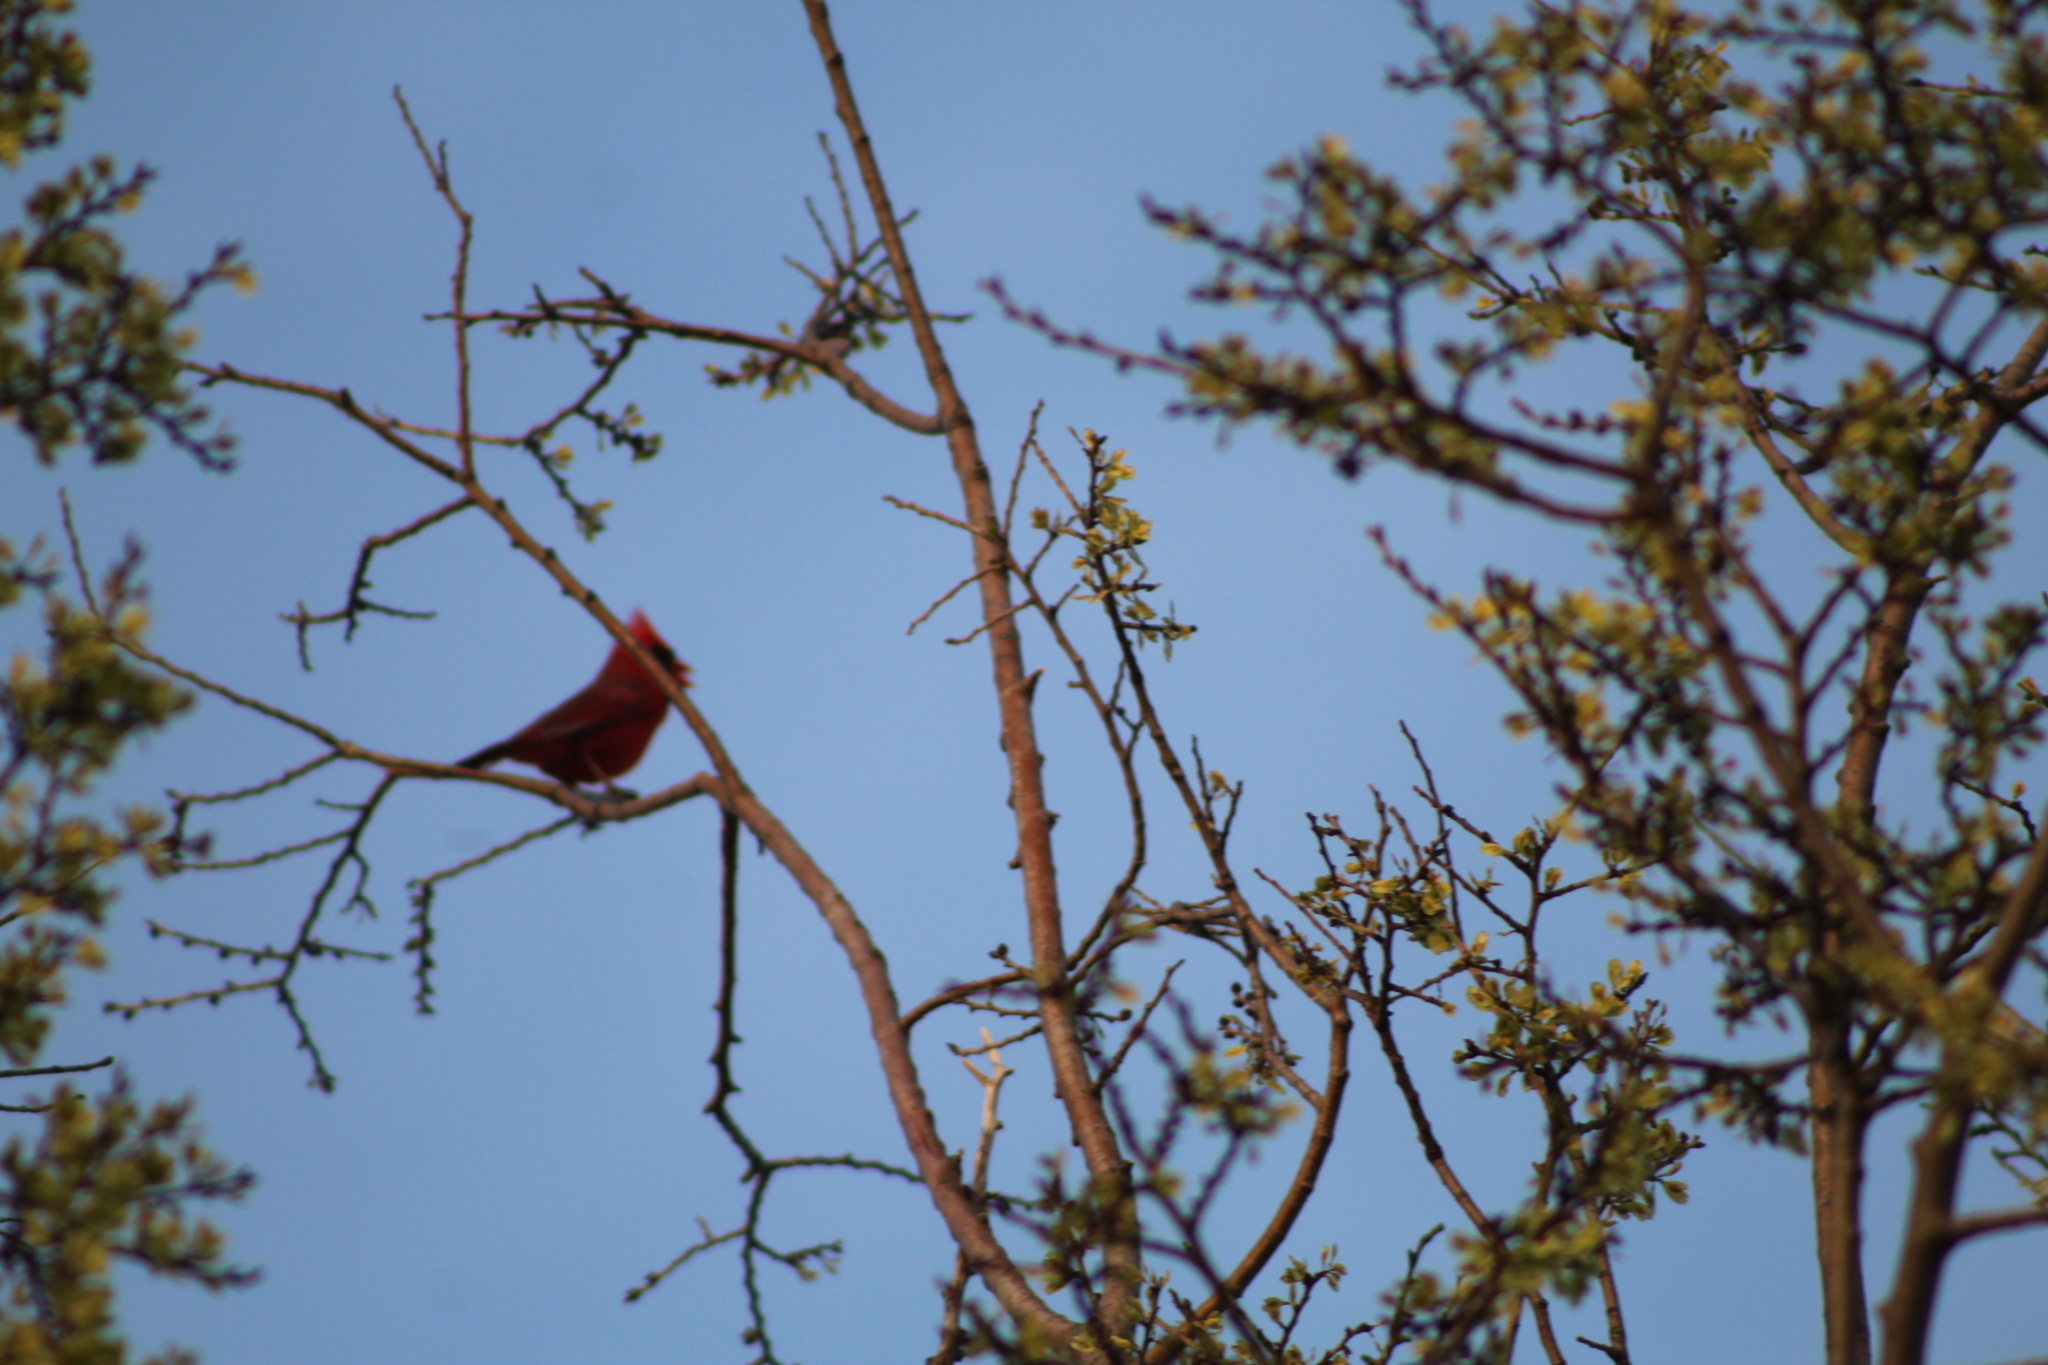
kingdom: Animalia
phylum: Chordata
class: Aves
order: Passeriformes
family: Cardinalidae
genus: Cardinalis
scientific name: Cardinalis cardinalis
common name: Northern cardinal
